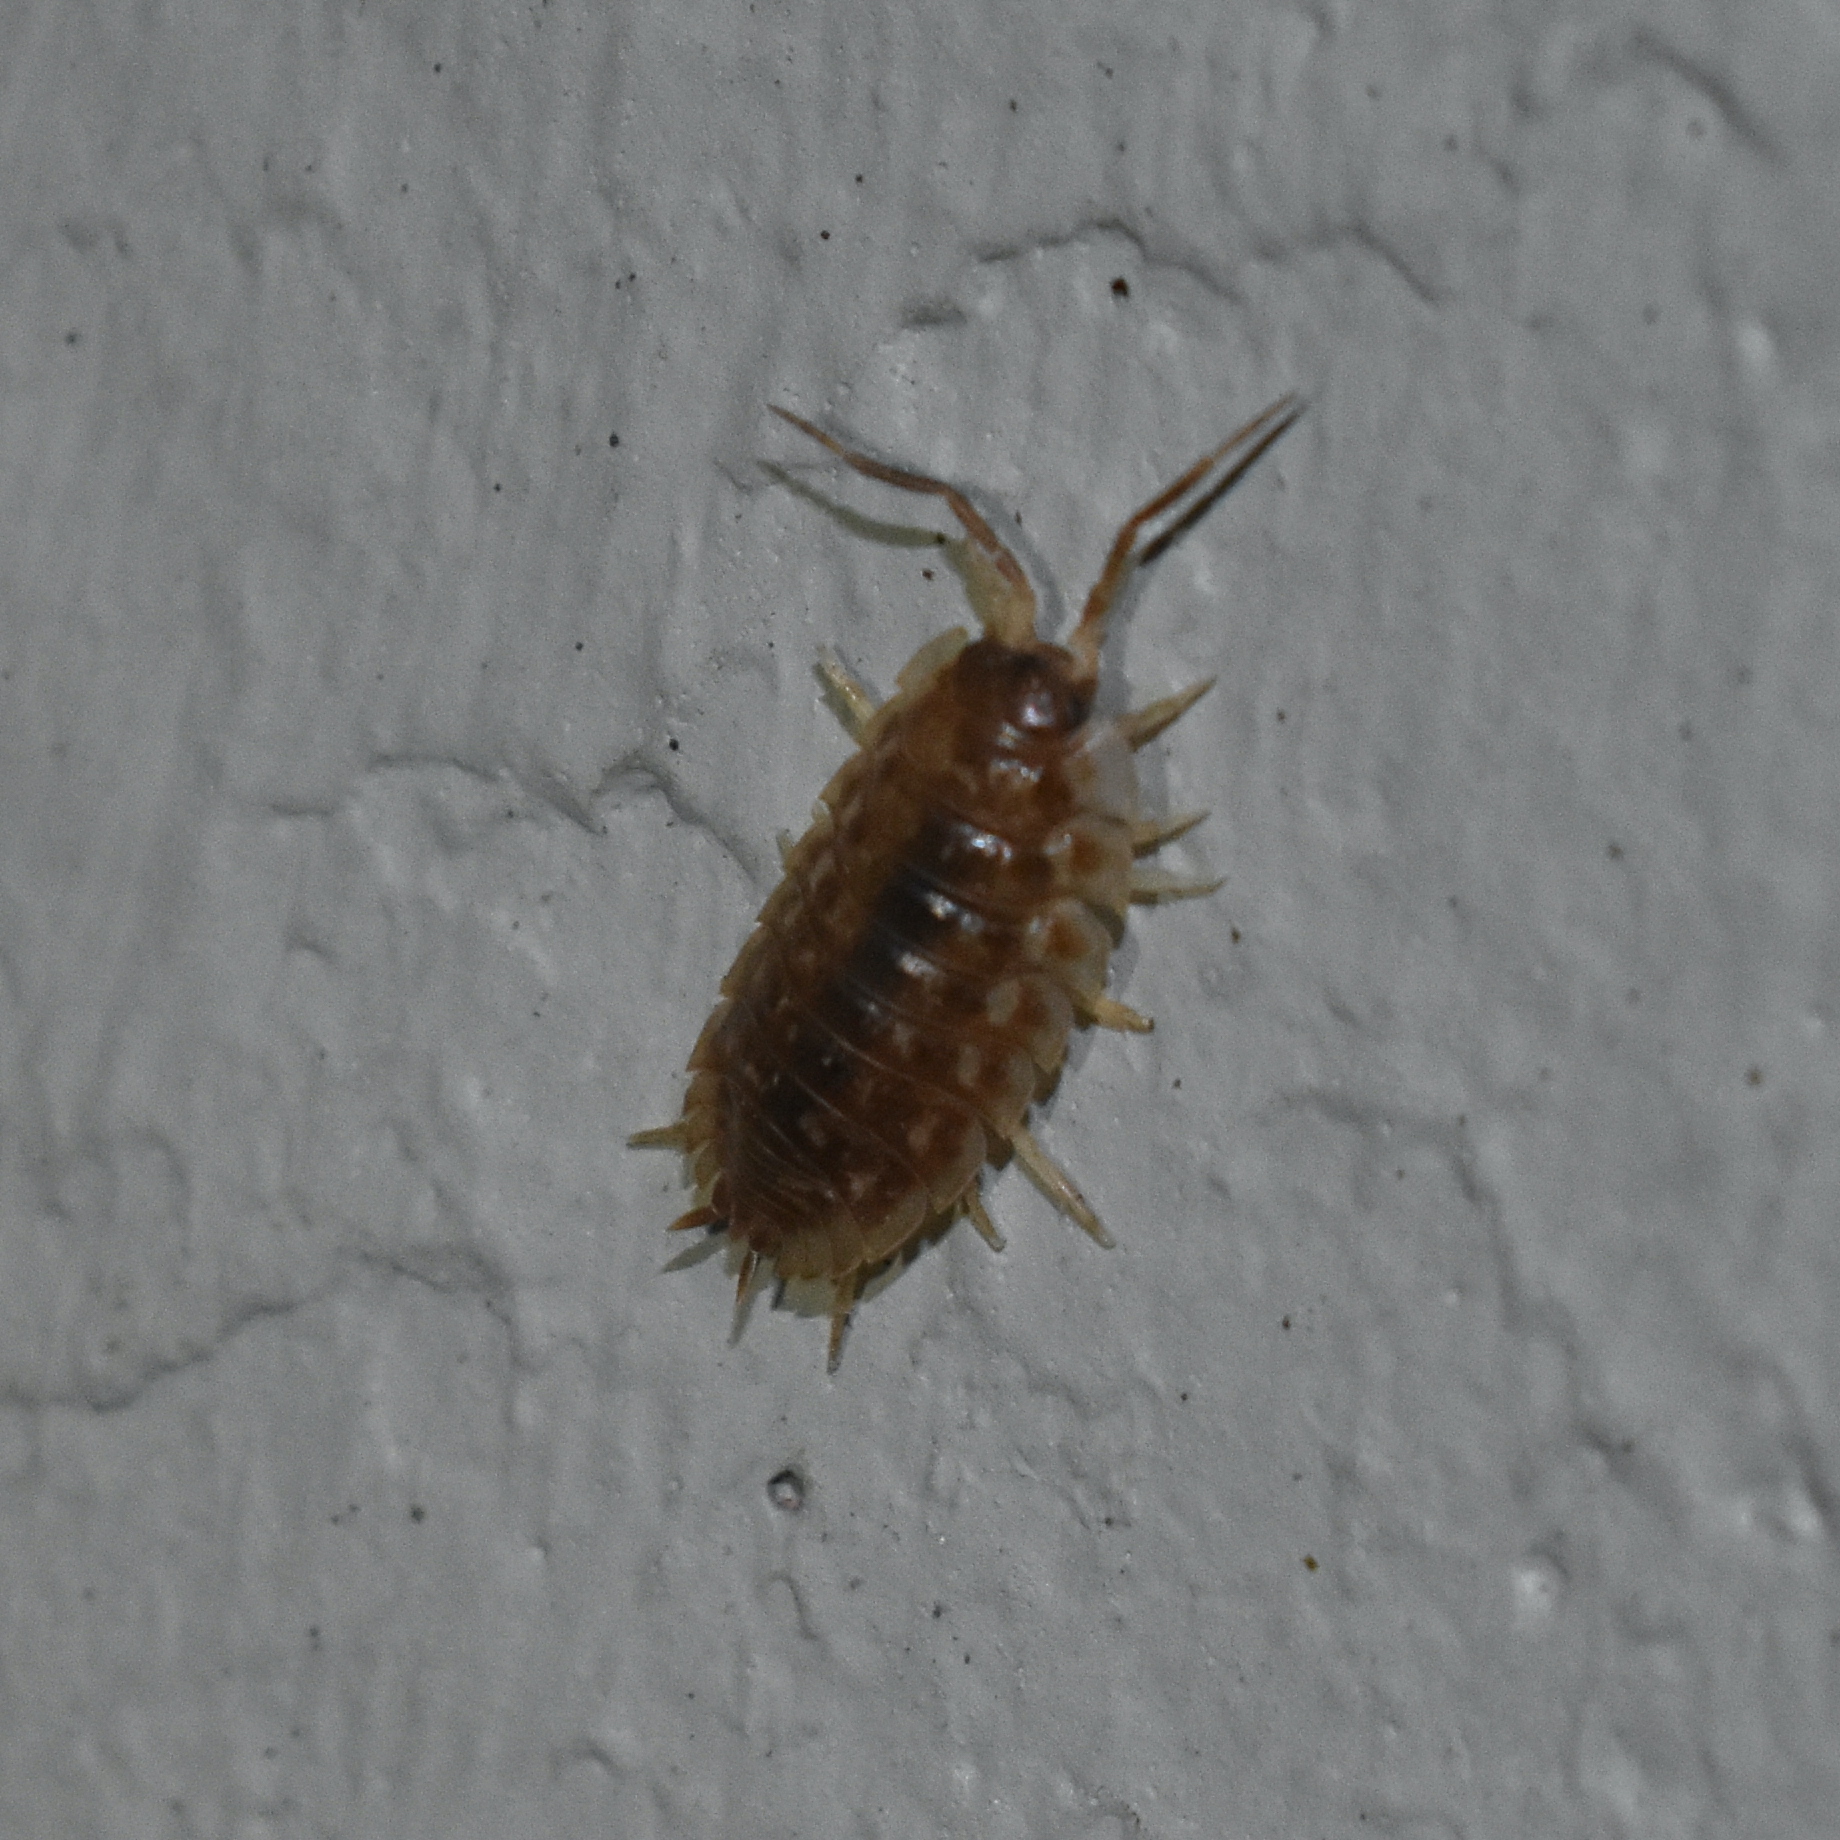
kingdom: Animalia
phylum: Arthropoda
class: Malacostraca
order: Isopoda
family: Oniscidae
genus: Oniscus
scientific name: Oniscus asellus
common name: Common shiny woodlouse
